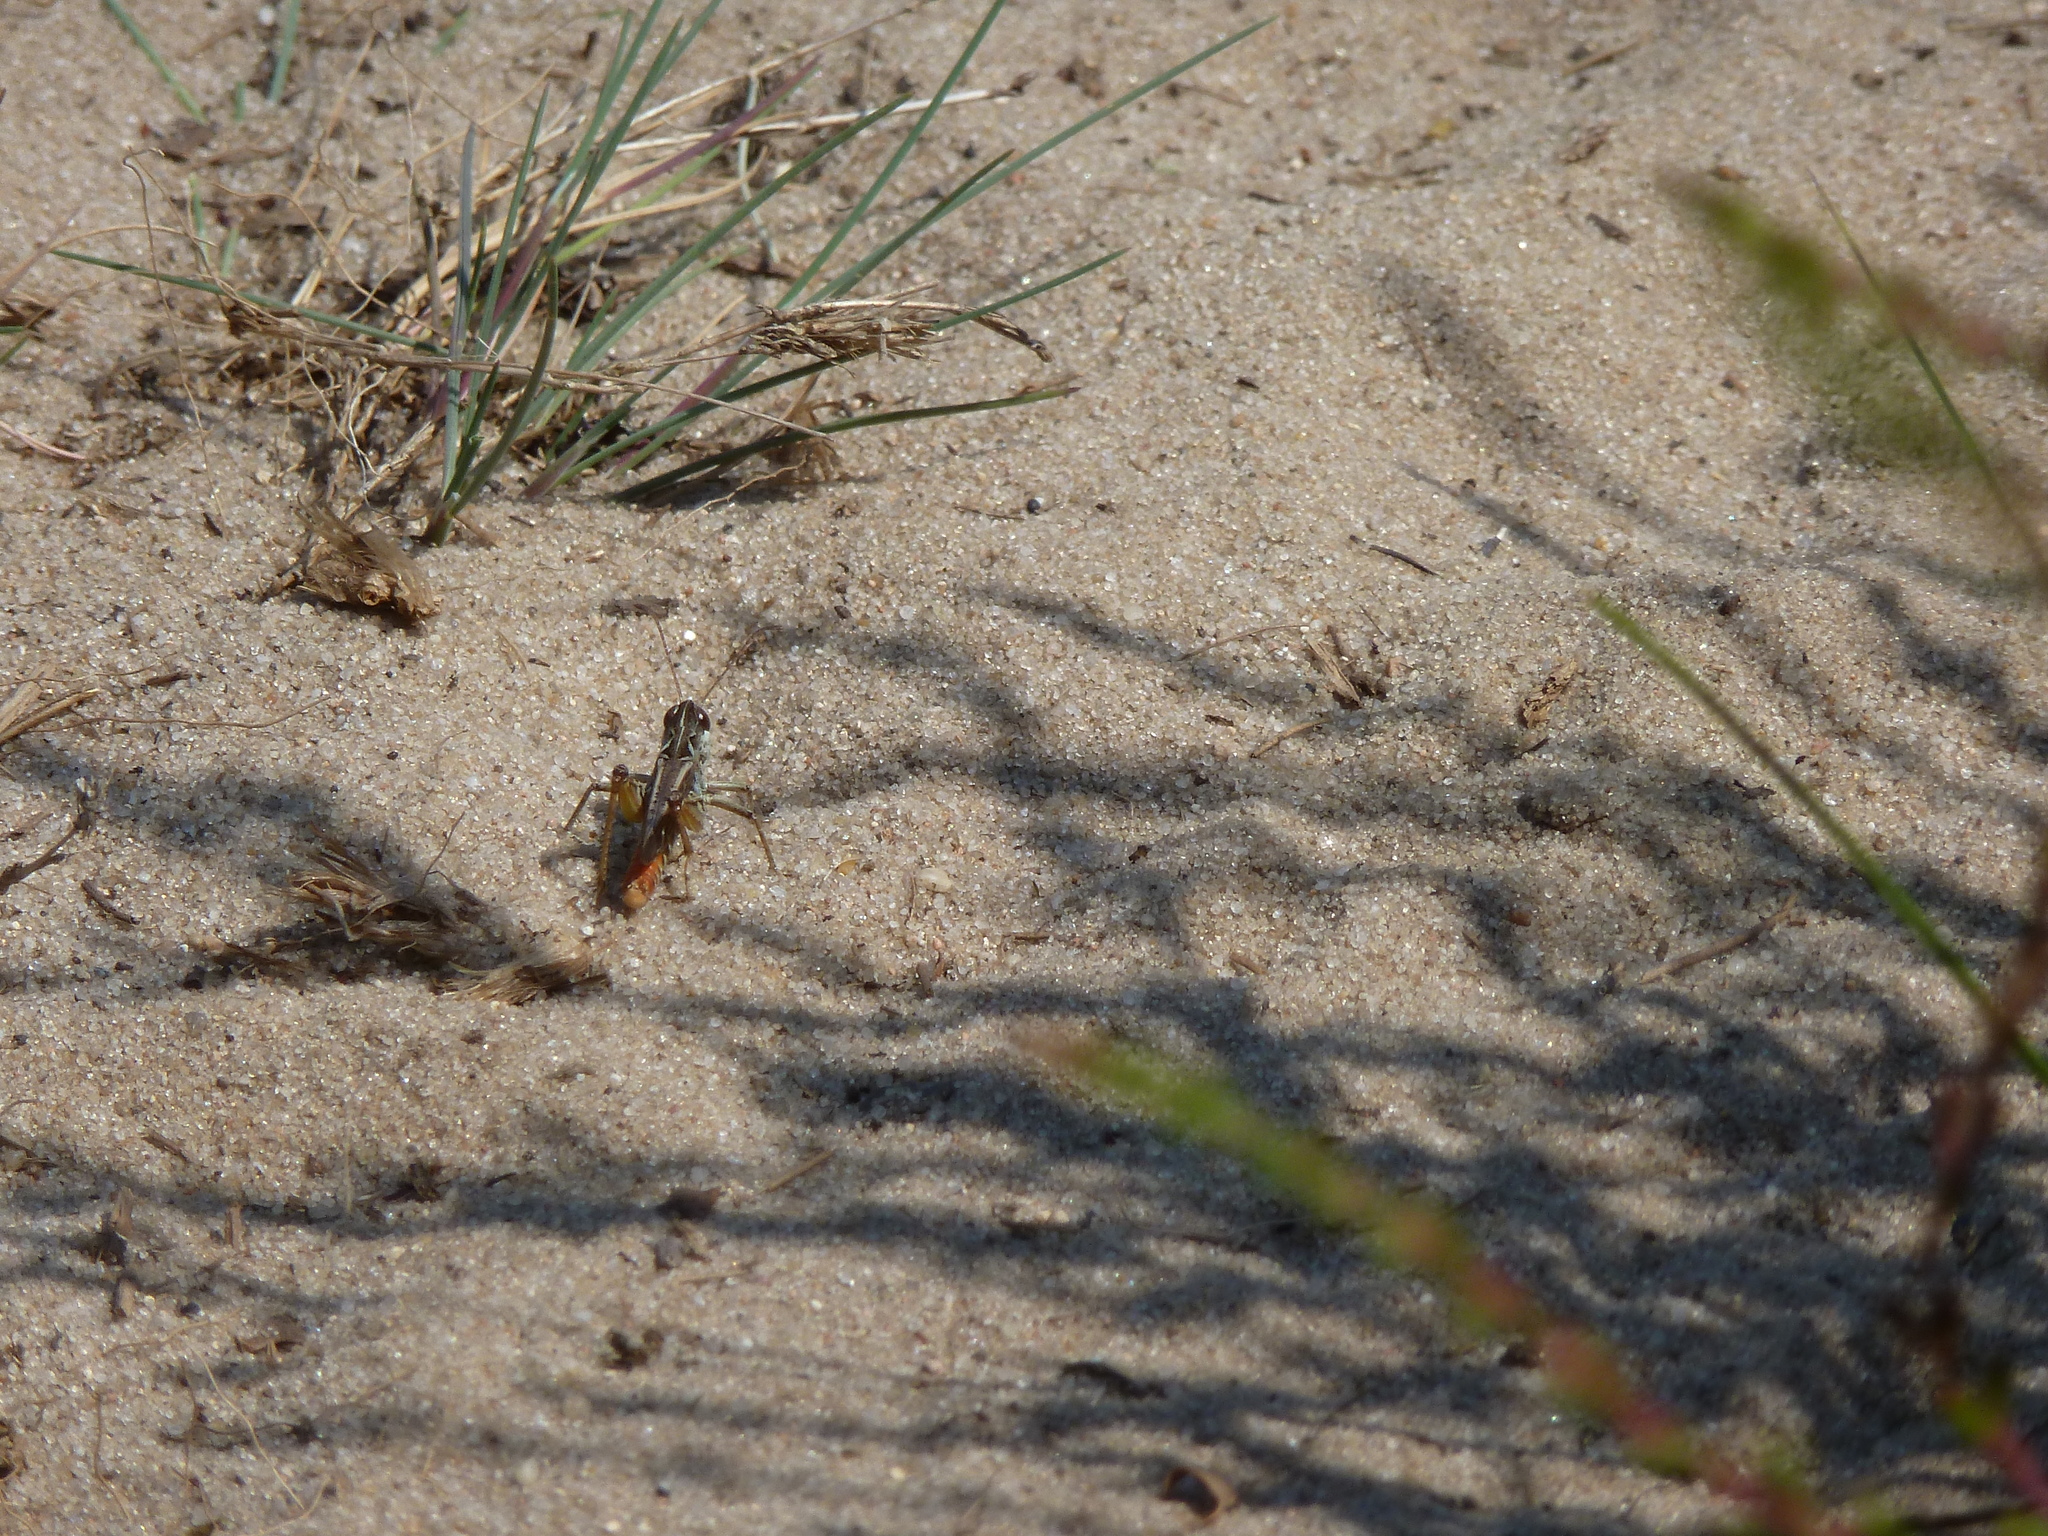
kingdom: Animalia
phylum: Arthropoda
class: Insecta
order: Orthoptera
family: Acrididae
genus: Myrmeleotettix
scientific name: Myrmeleotettix maculatus
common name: Mottled grasshopper
